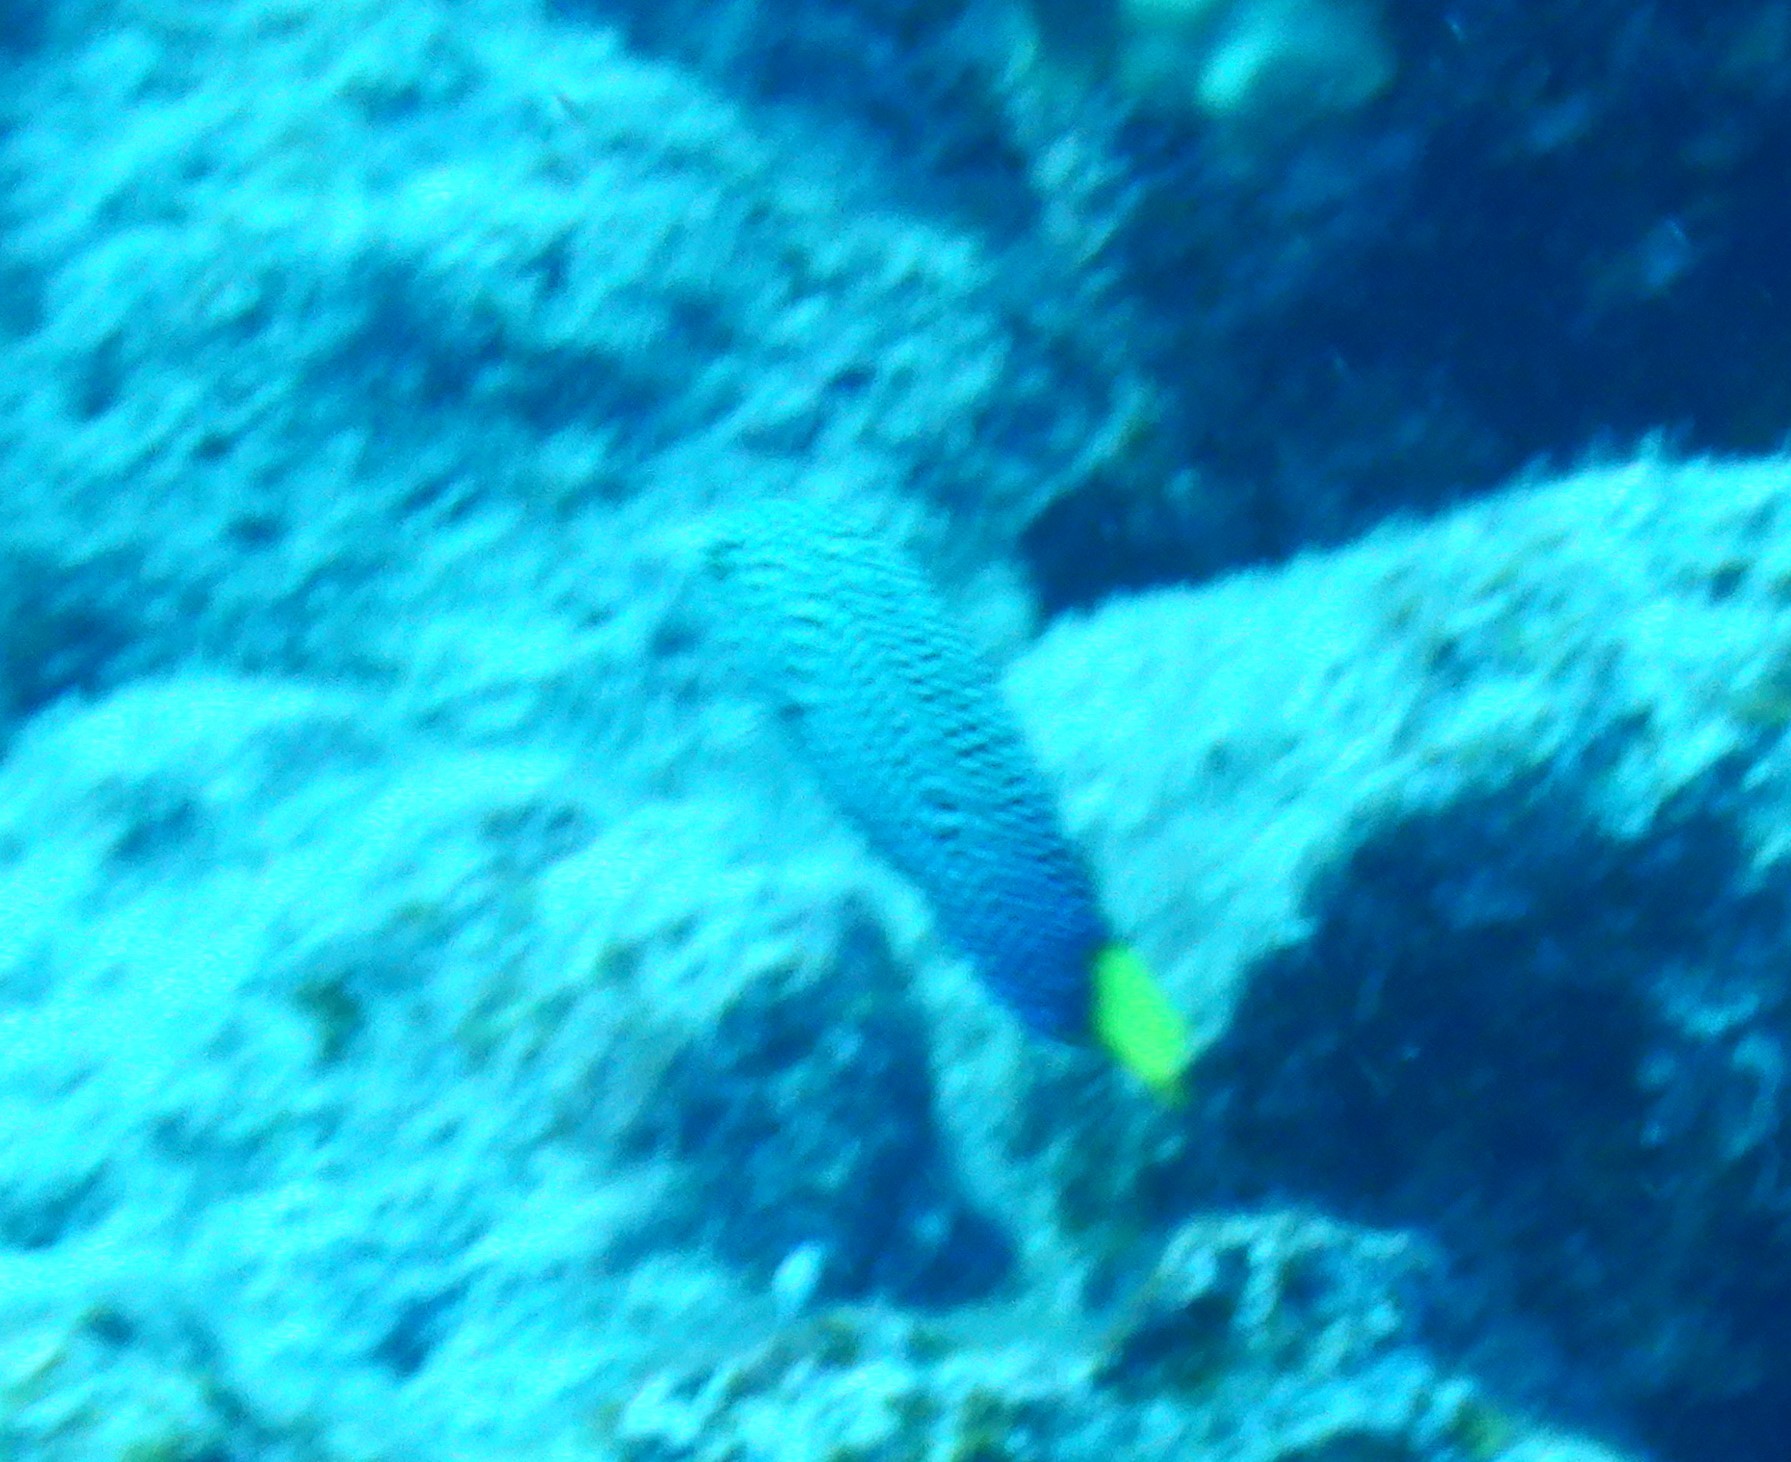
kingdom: Animalia
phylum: Chordata
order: Perciformes
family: Labridae
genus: Anampses
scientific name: Anampses meleagrides
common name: Yellowtail wrasse
